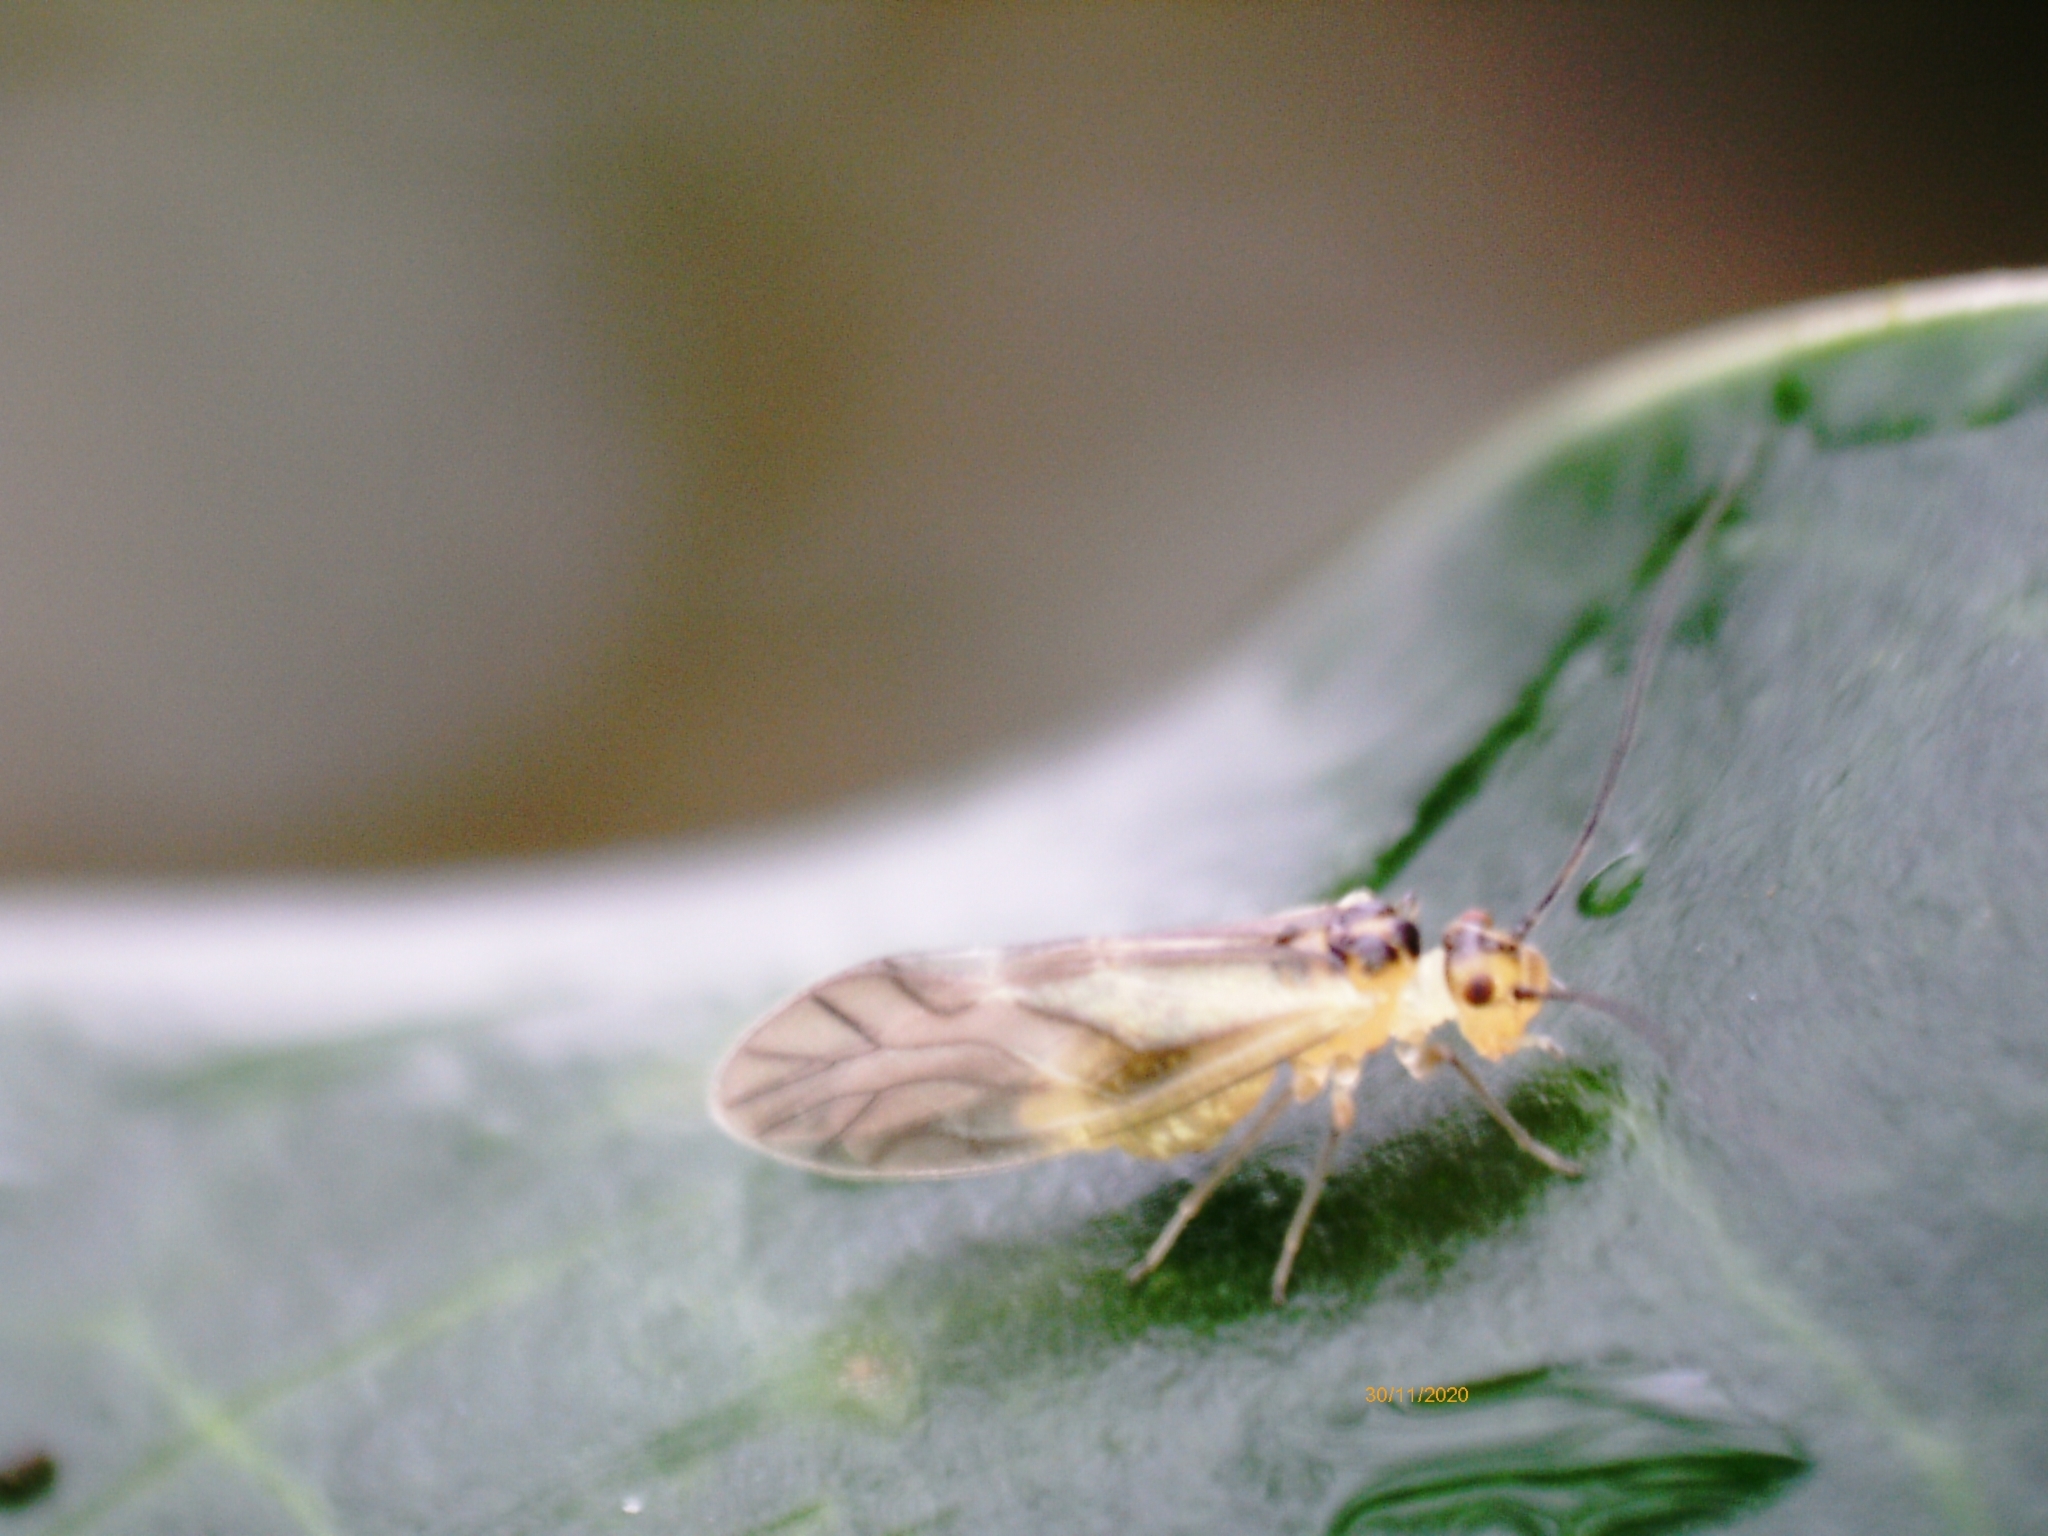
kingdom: Animalia
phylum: Arthropoda
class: Insecta
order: Psocodea
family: Caeciliusidae
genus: Valenzuela
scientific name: Valenzuela flavidus
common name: Yellow barklouse
